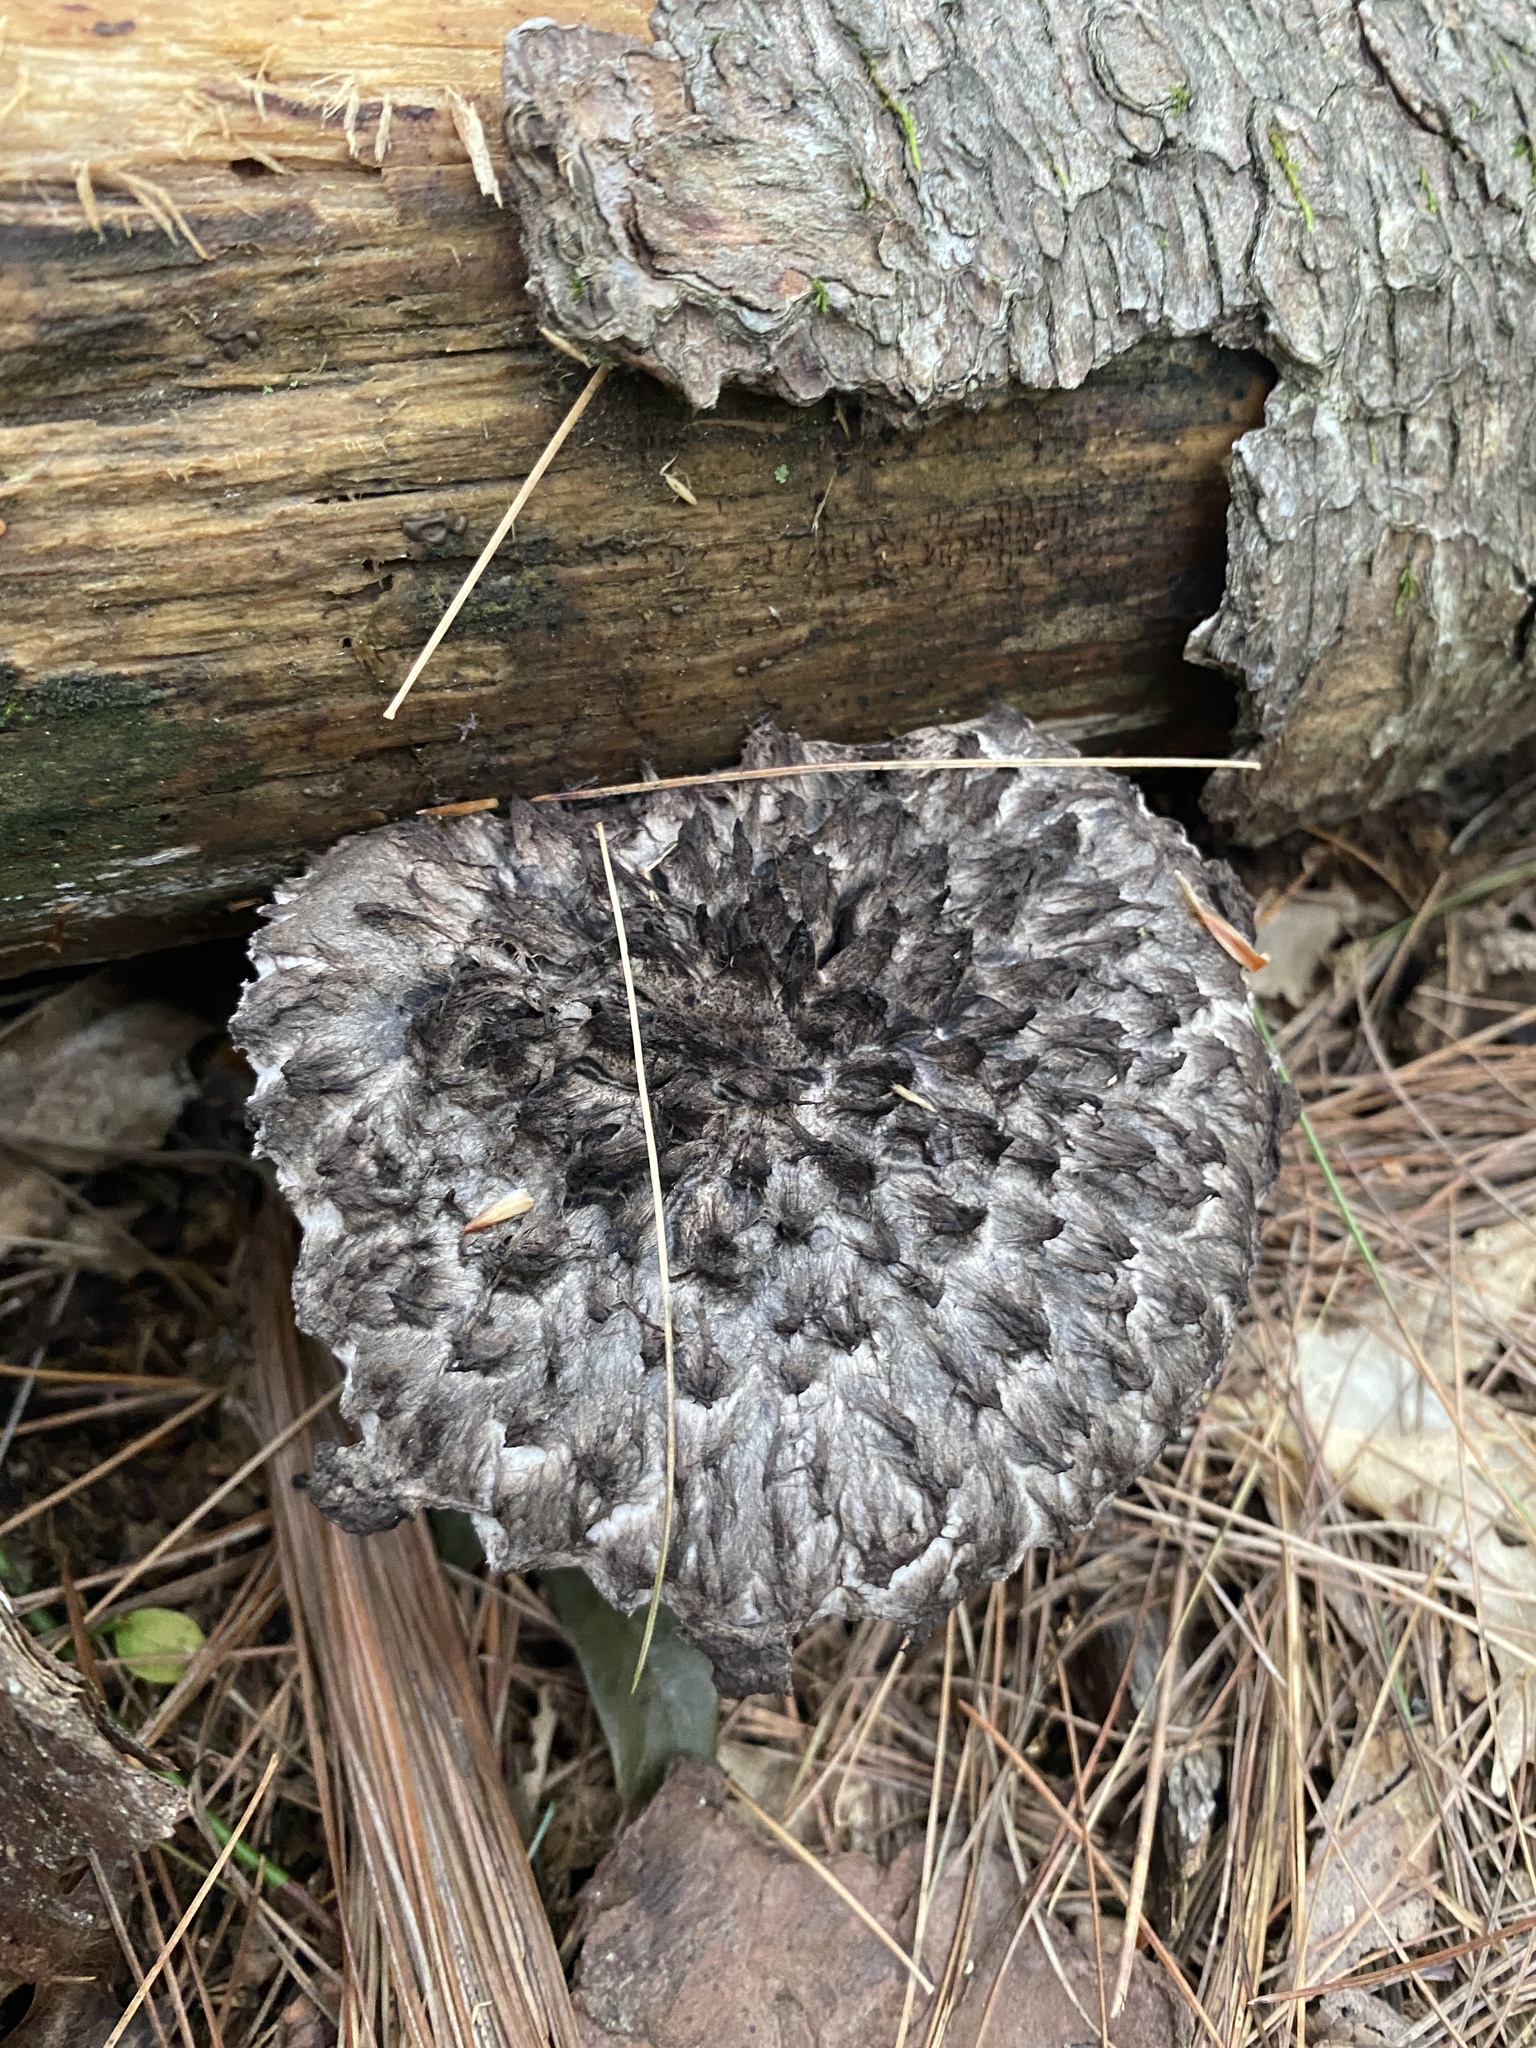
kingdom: Fungi
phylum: Basidiomycota
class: Agaricomycetes
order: Boletales
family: Boletaceae
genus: Strobilomyces
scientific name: Strobilomyces strobilaceus
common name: Old man of the woods
